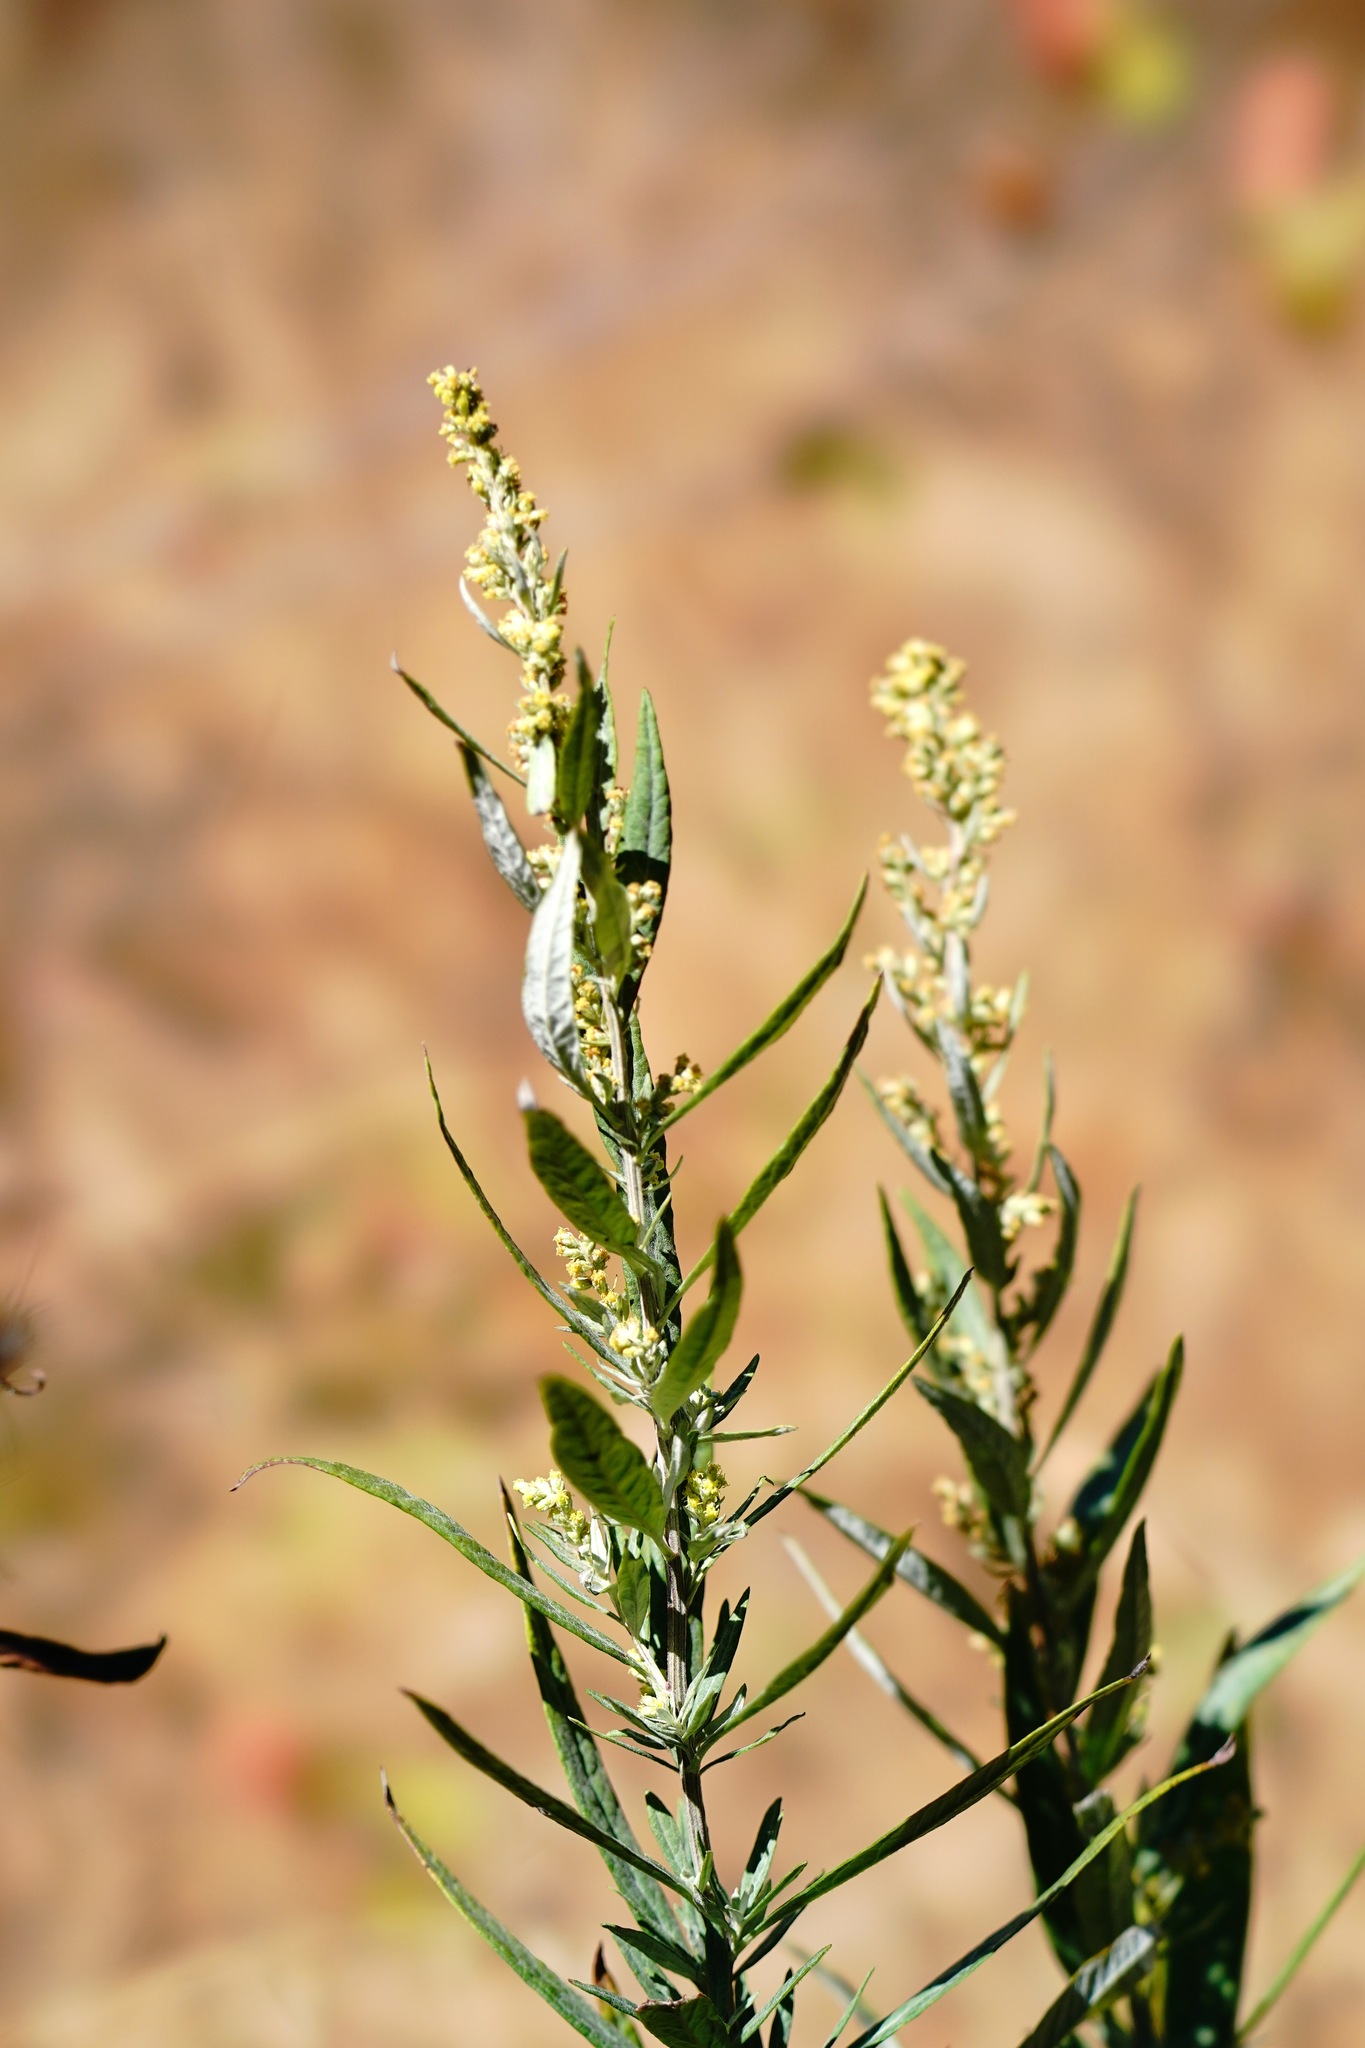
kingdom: Plantae
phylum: Tracheophyta
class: Magnoliopsida
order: Asterales
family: Asteraceae
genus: Artemisia
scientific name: Artemisia douglasiana
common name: Northwest mugwort
